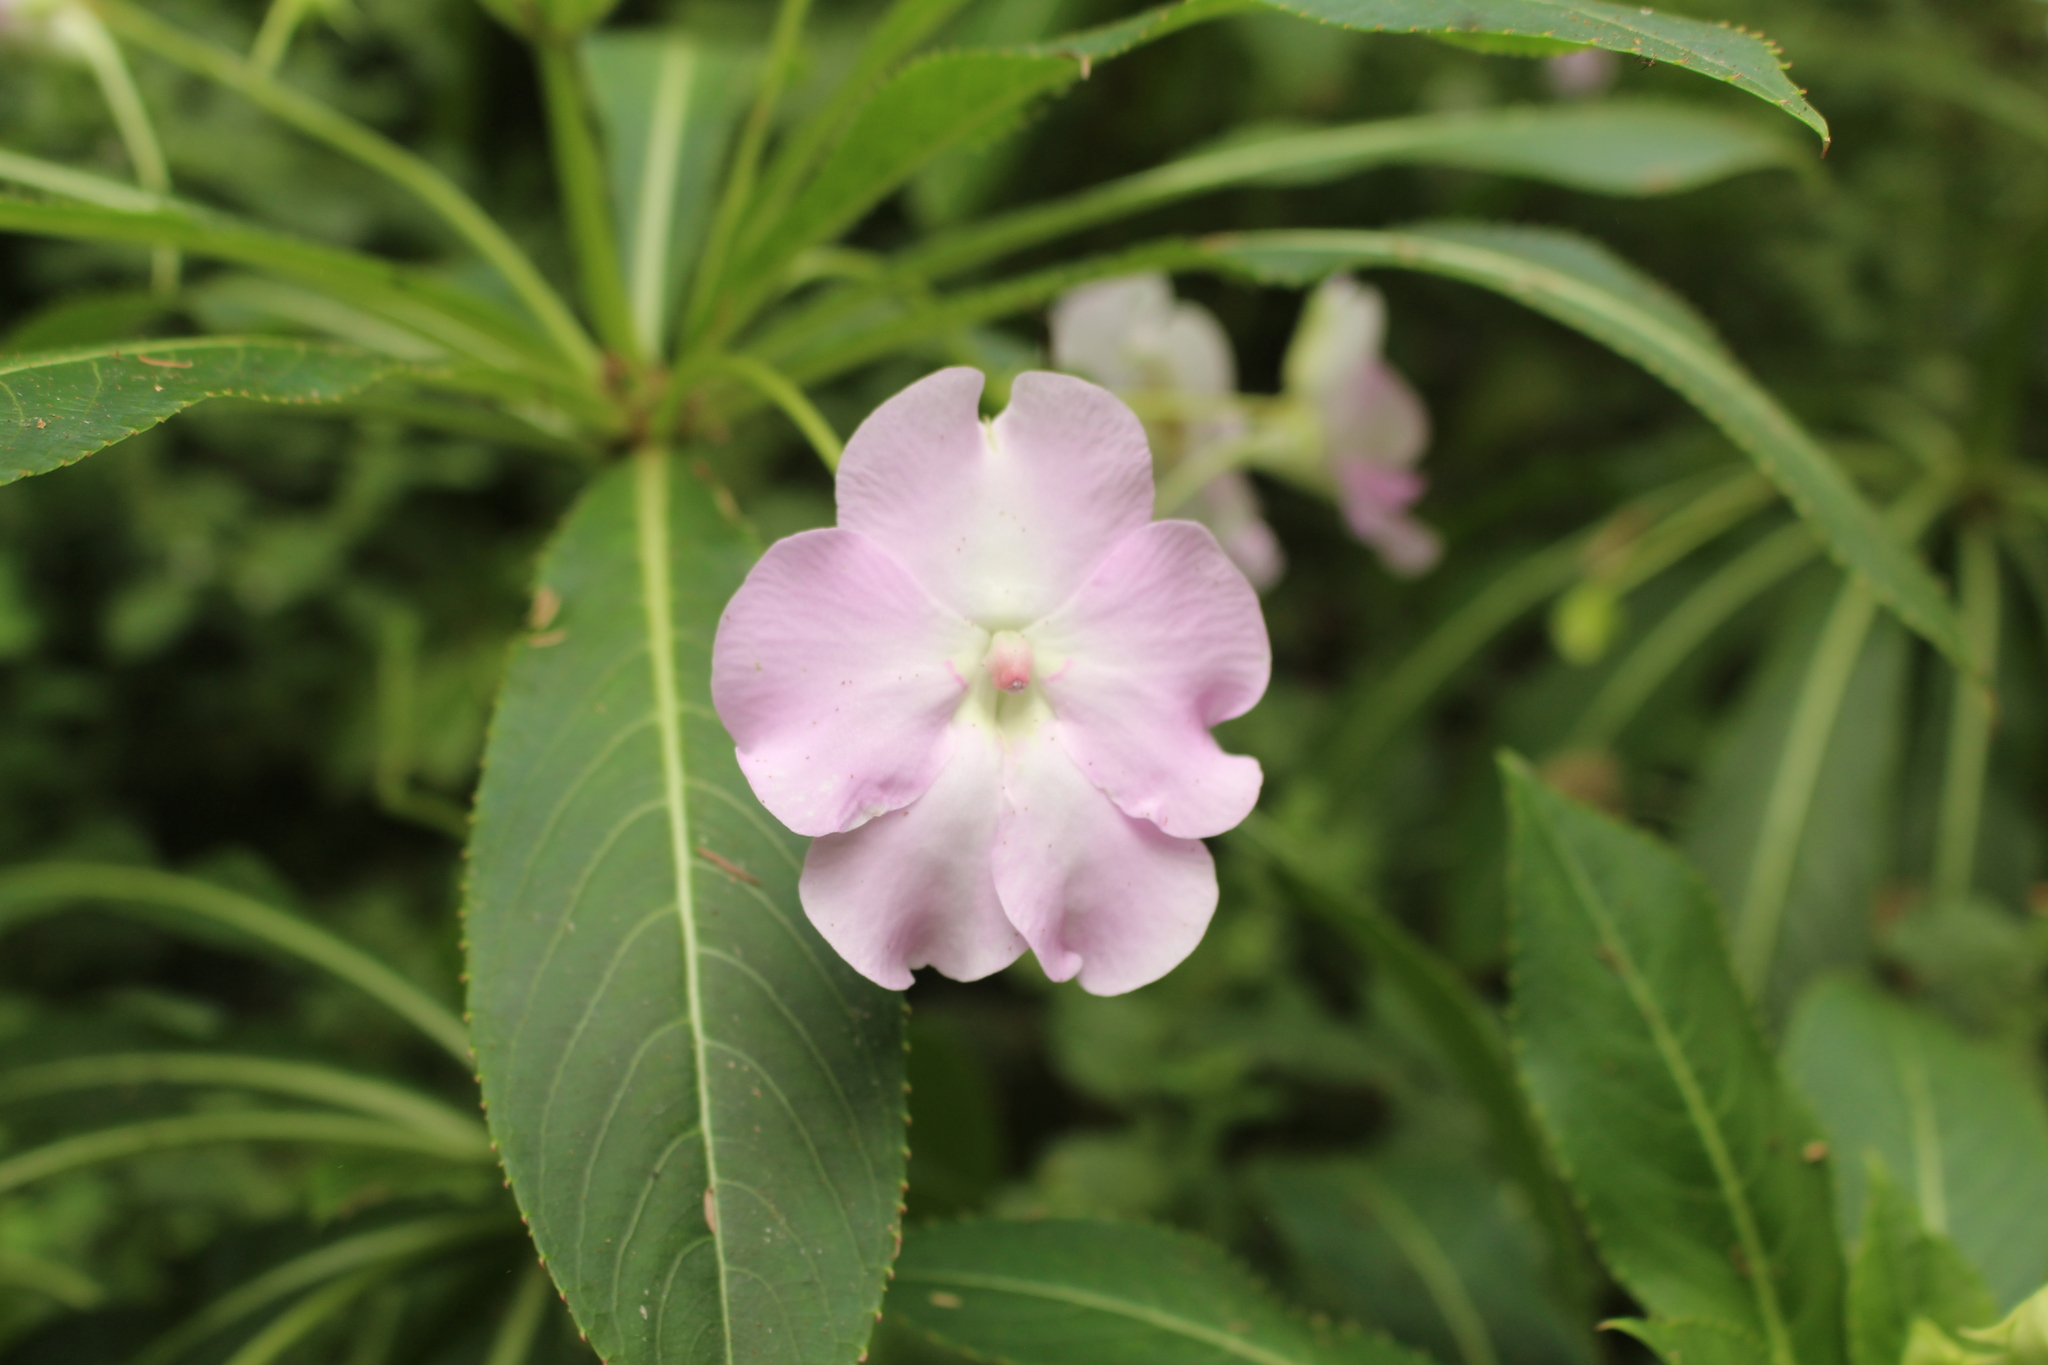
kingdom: Plantae
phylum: Tracheophyta
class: Magnoliopsida
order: Ericales
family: Balsaminaceae
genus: Impatiens
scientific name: Impatiens sodenii
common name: Oliver's touch-me-not
